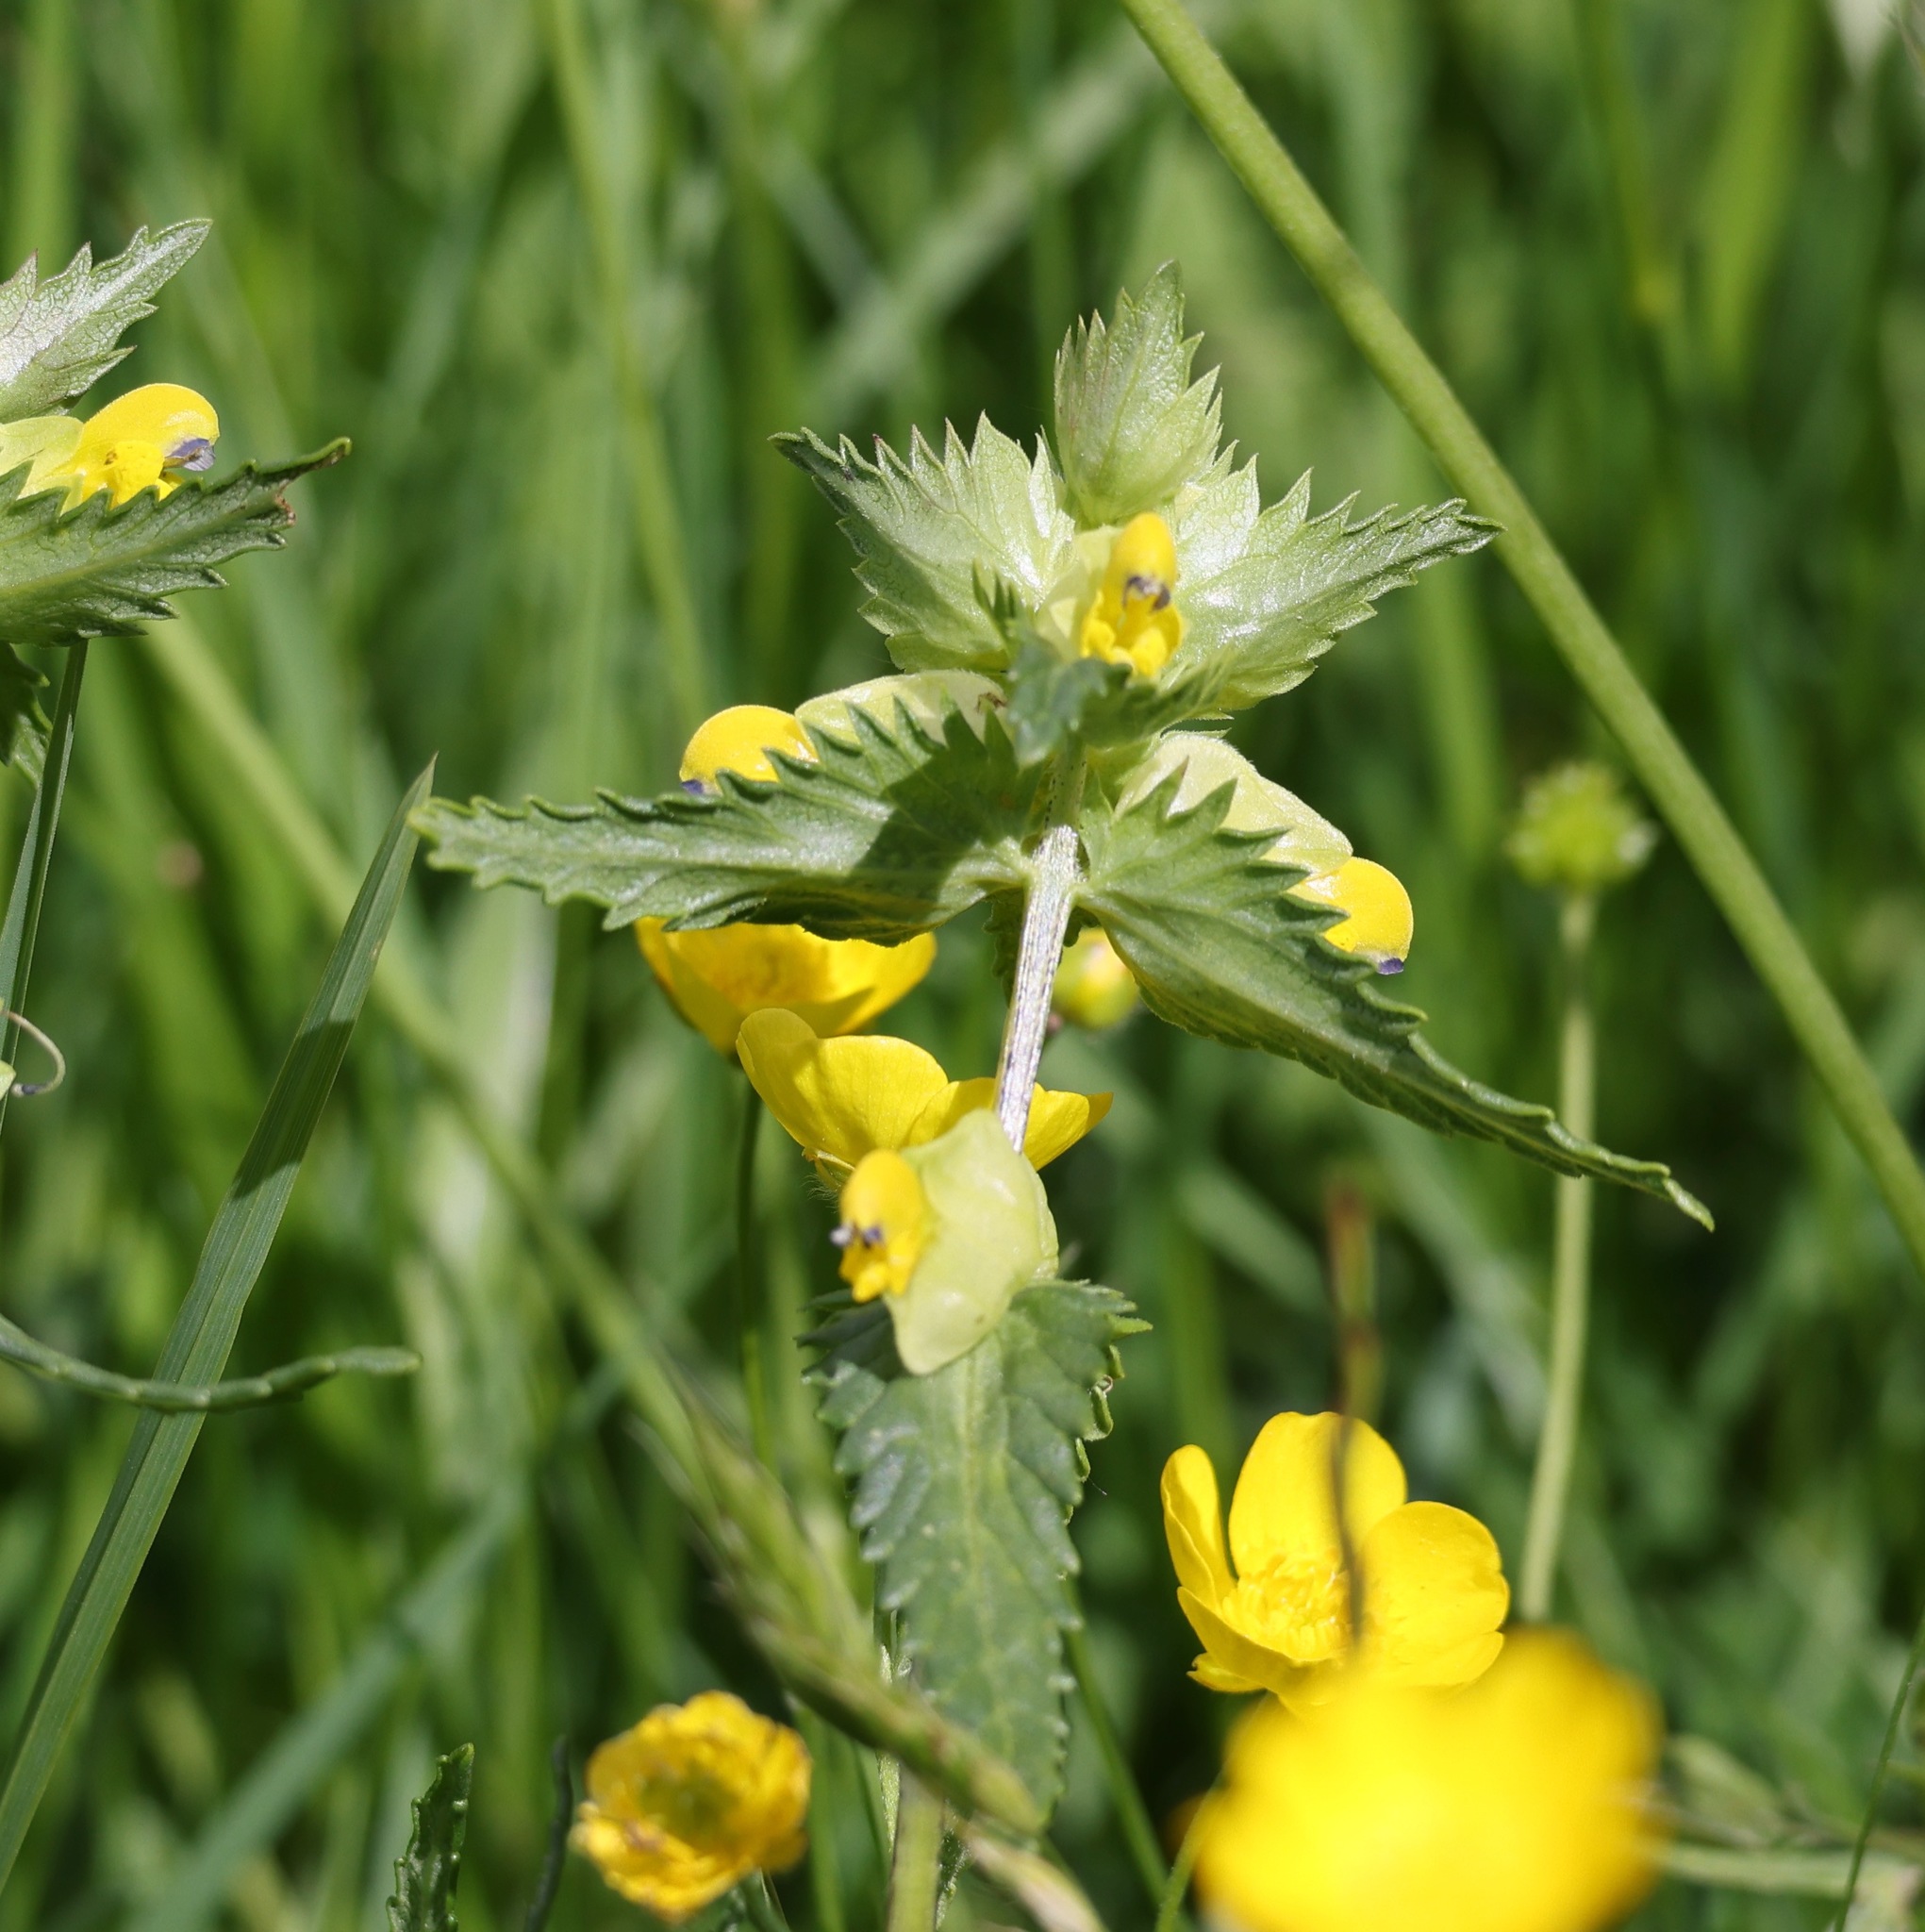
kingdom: Plantae
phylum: Tracheophyta
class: Magnoliopsida
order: Lamiales
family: Orobanchaceae
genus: Rhinanthus
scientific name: Rhinanthus minor
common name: Yellow-rattle
